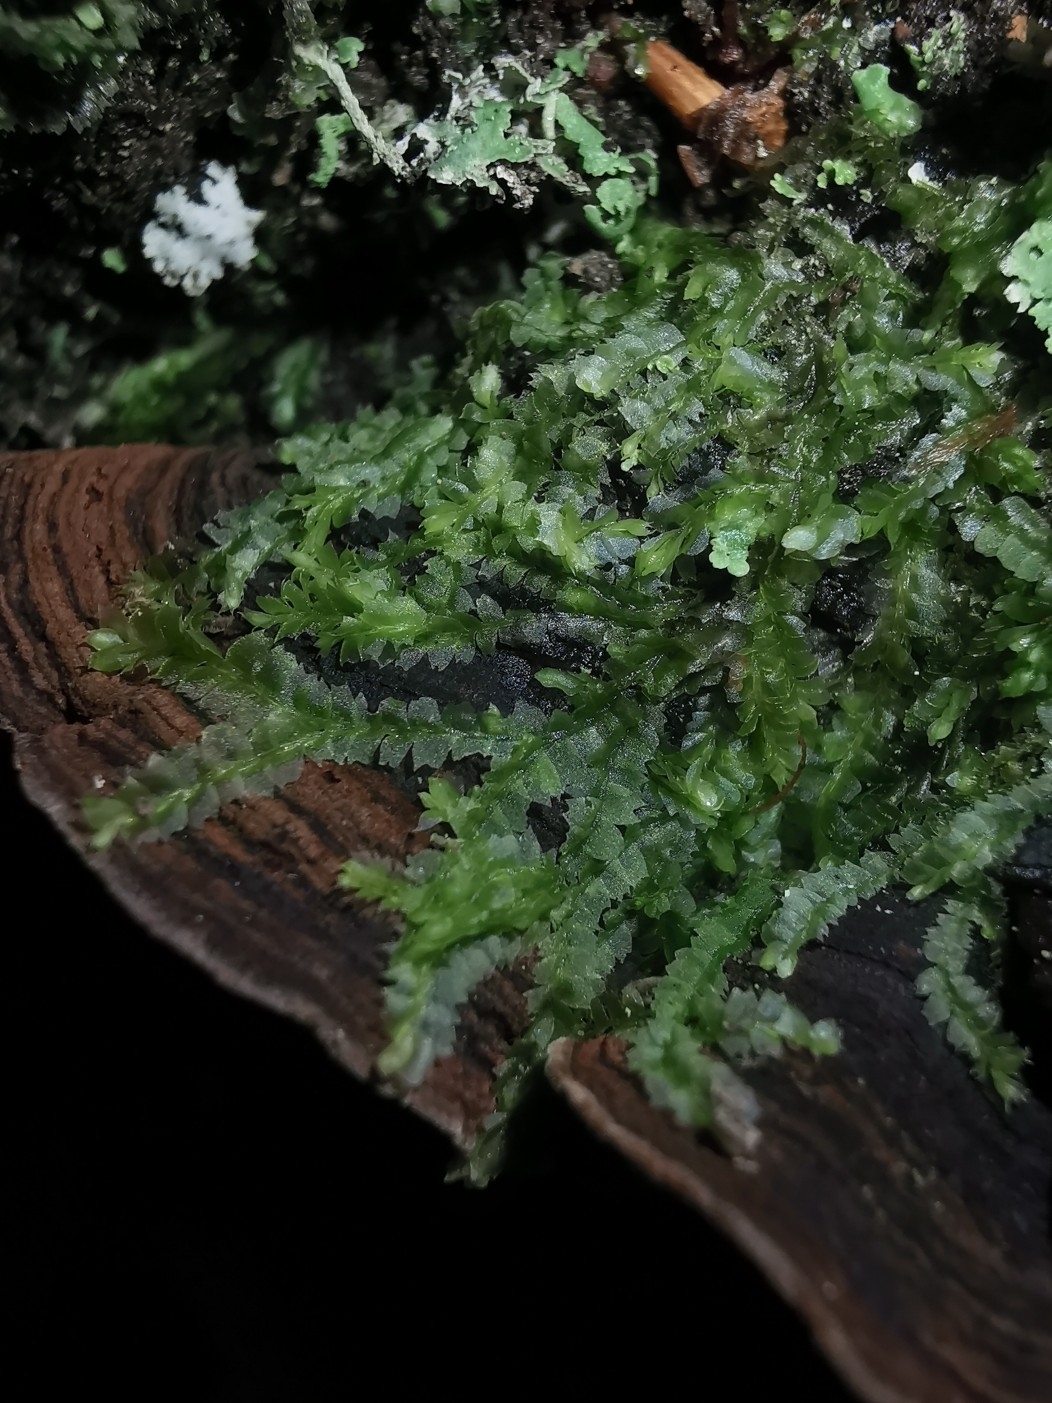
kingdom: Plantae
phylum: Marchantiophyta
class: Jungermanniopsida
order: Jungermanniales
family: Lophocoleaceae
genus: Lophocolea
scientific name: Lophocolea heterophylla
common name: Variable-leaved crestwort
